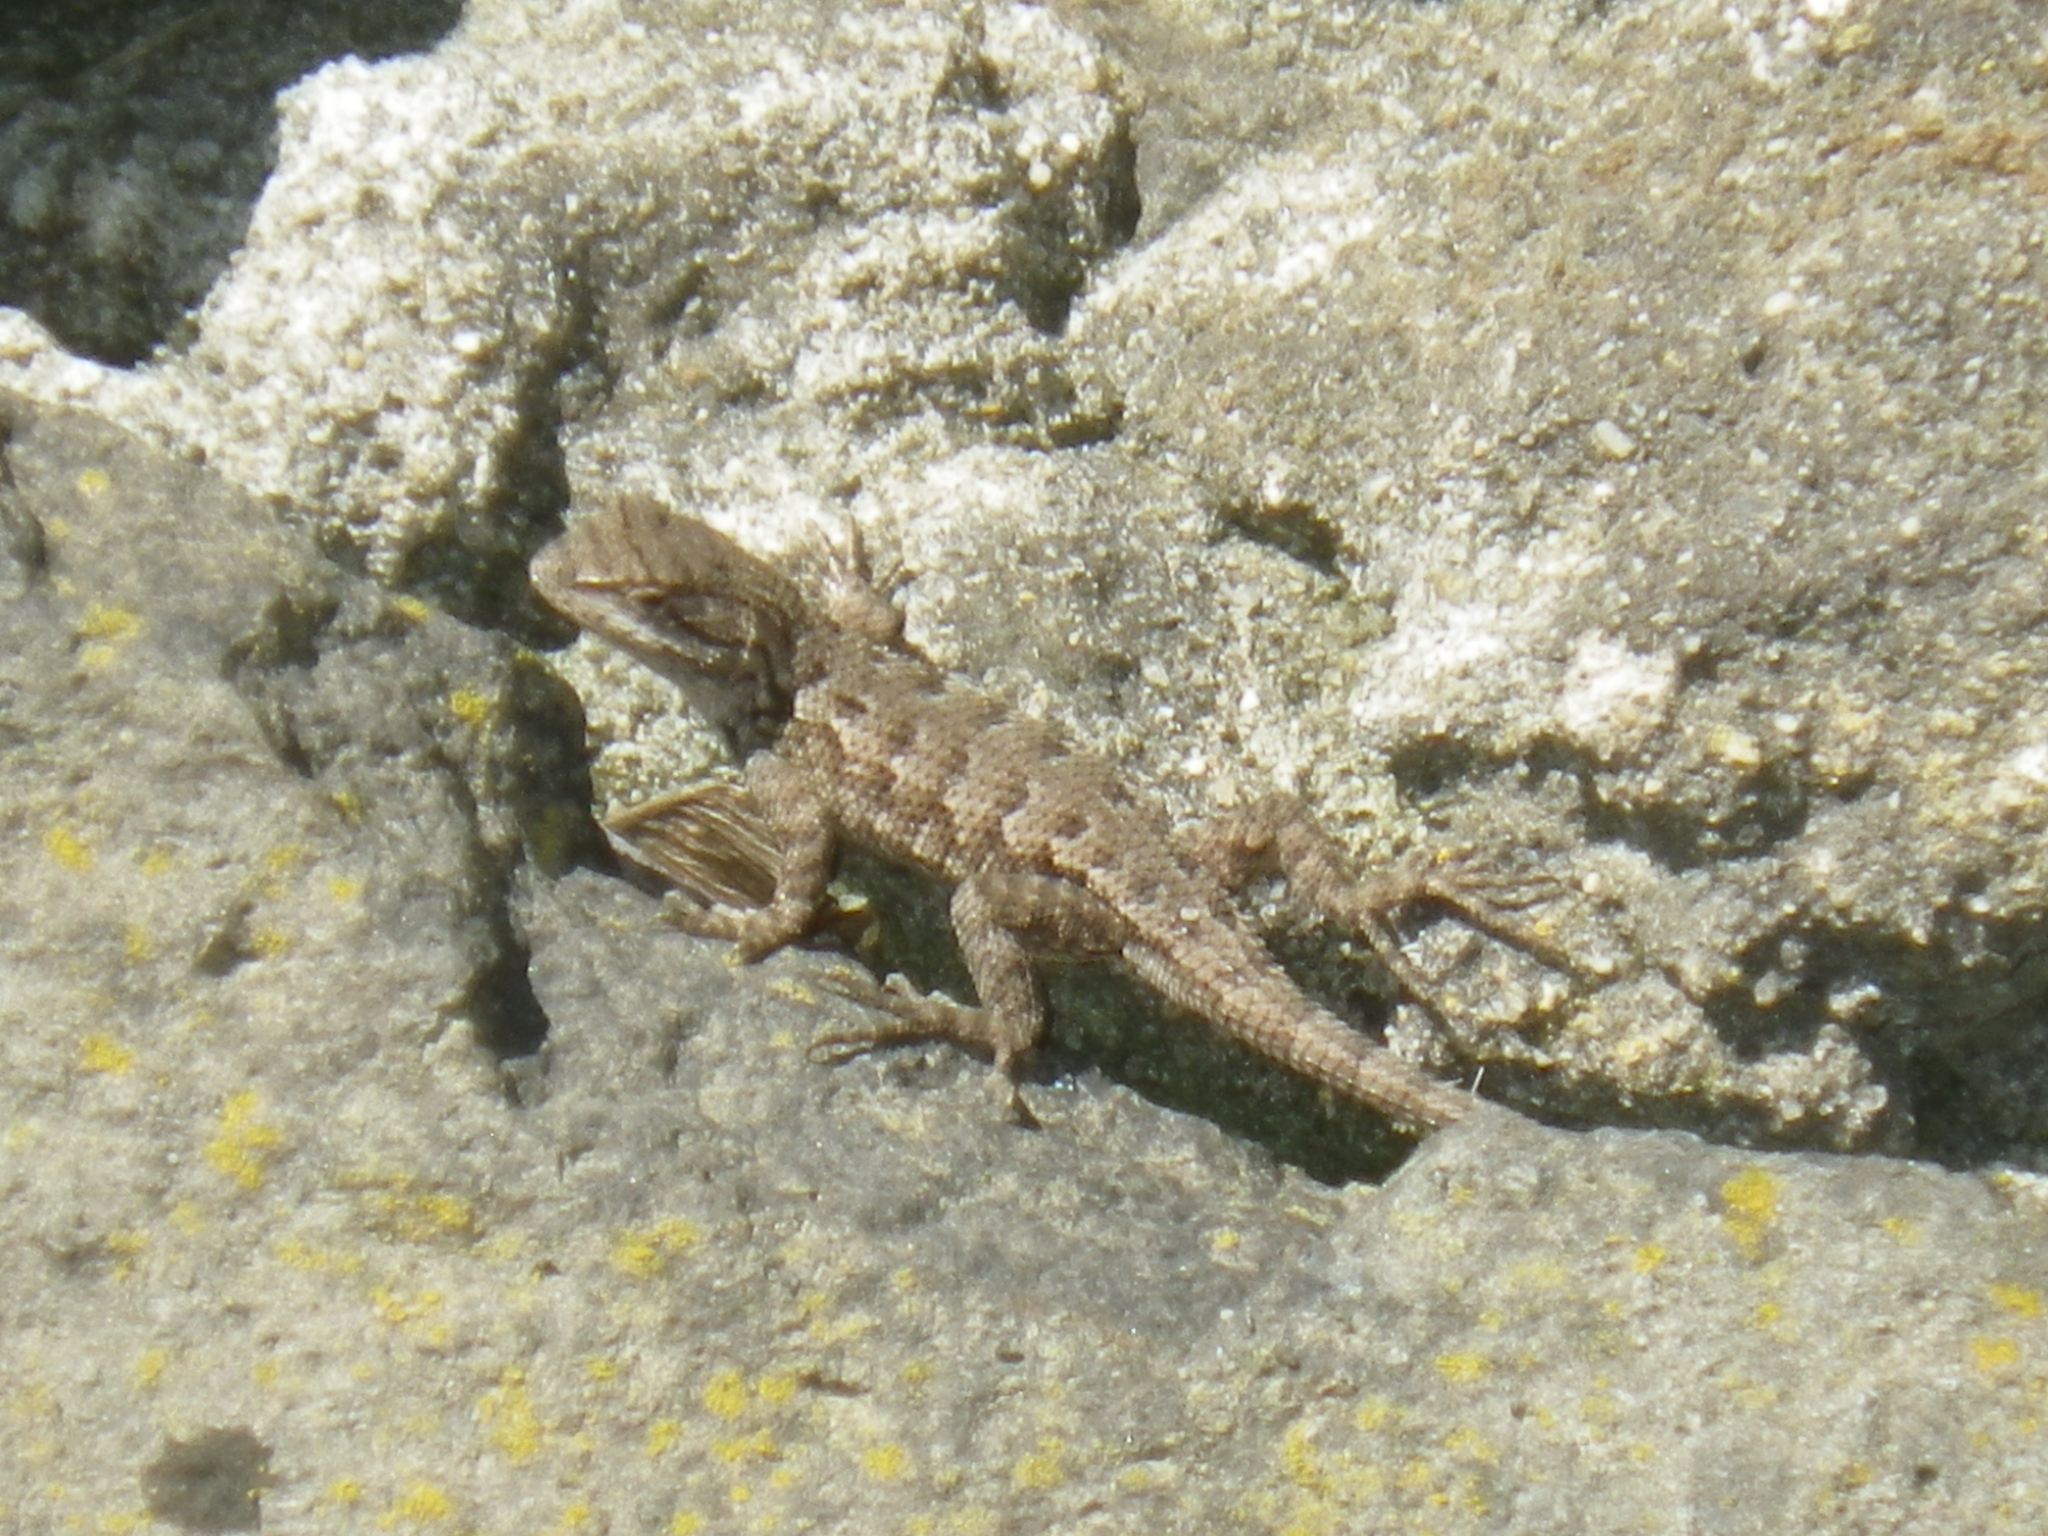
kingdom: Animalia
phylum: Chordata
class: Squamata
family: Phrynosomatidae
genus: Sceloporus
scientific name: Sceloporus occidentalis
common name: Western fence lizard
